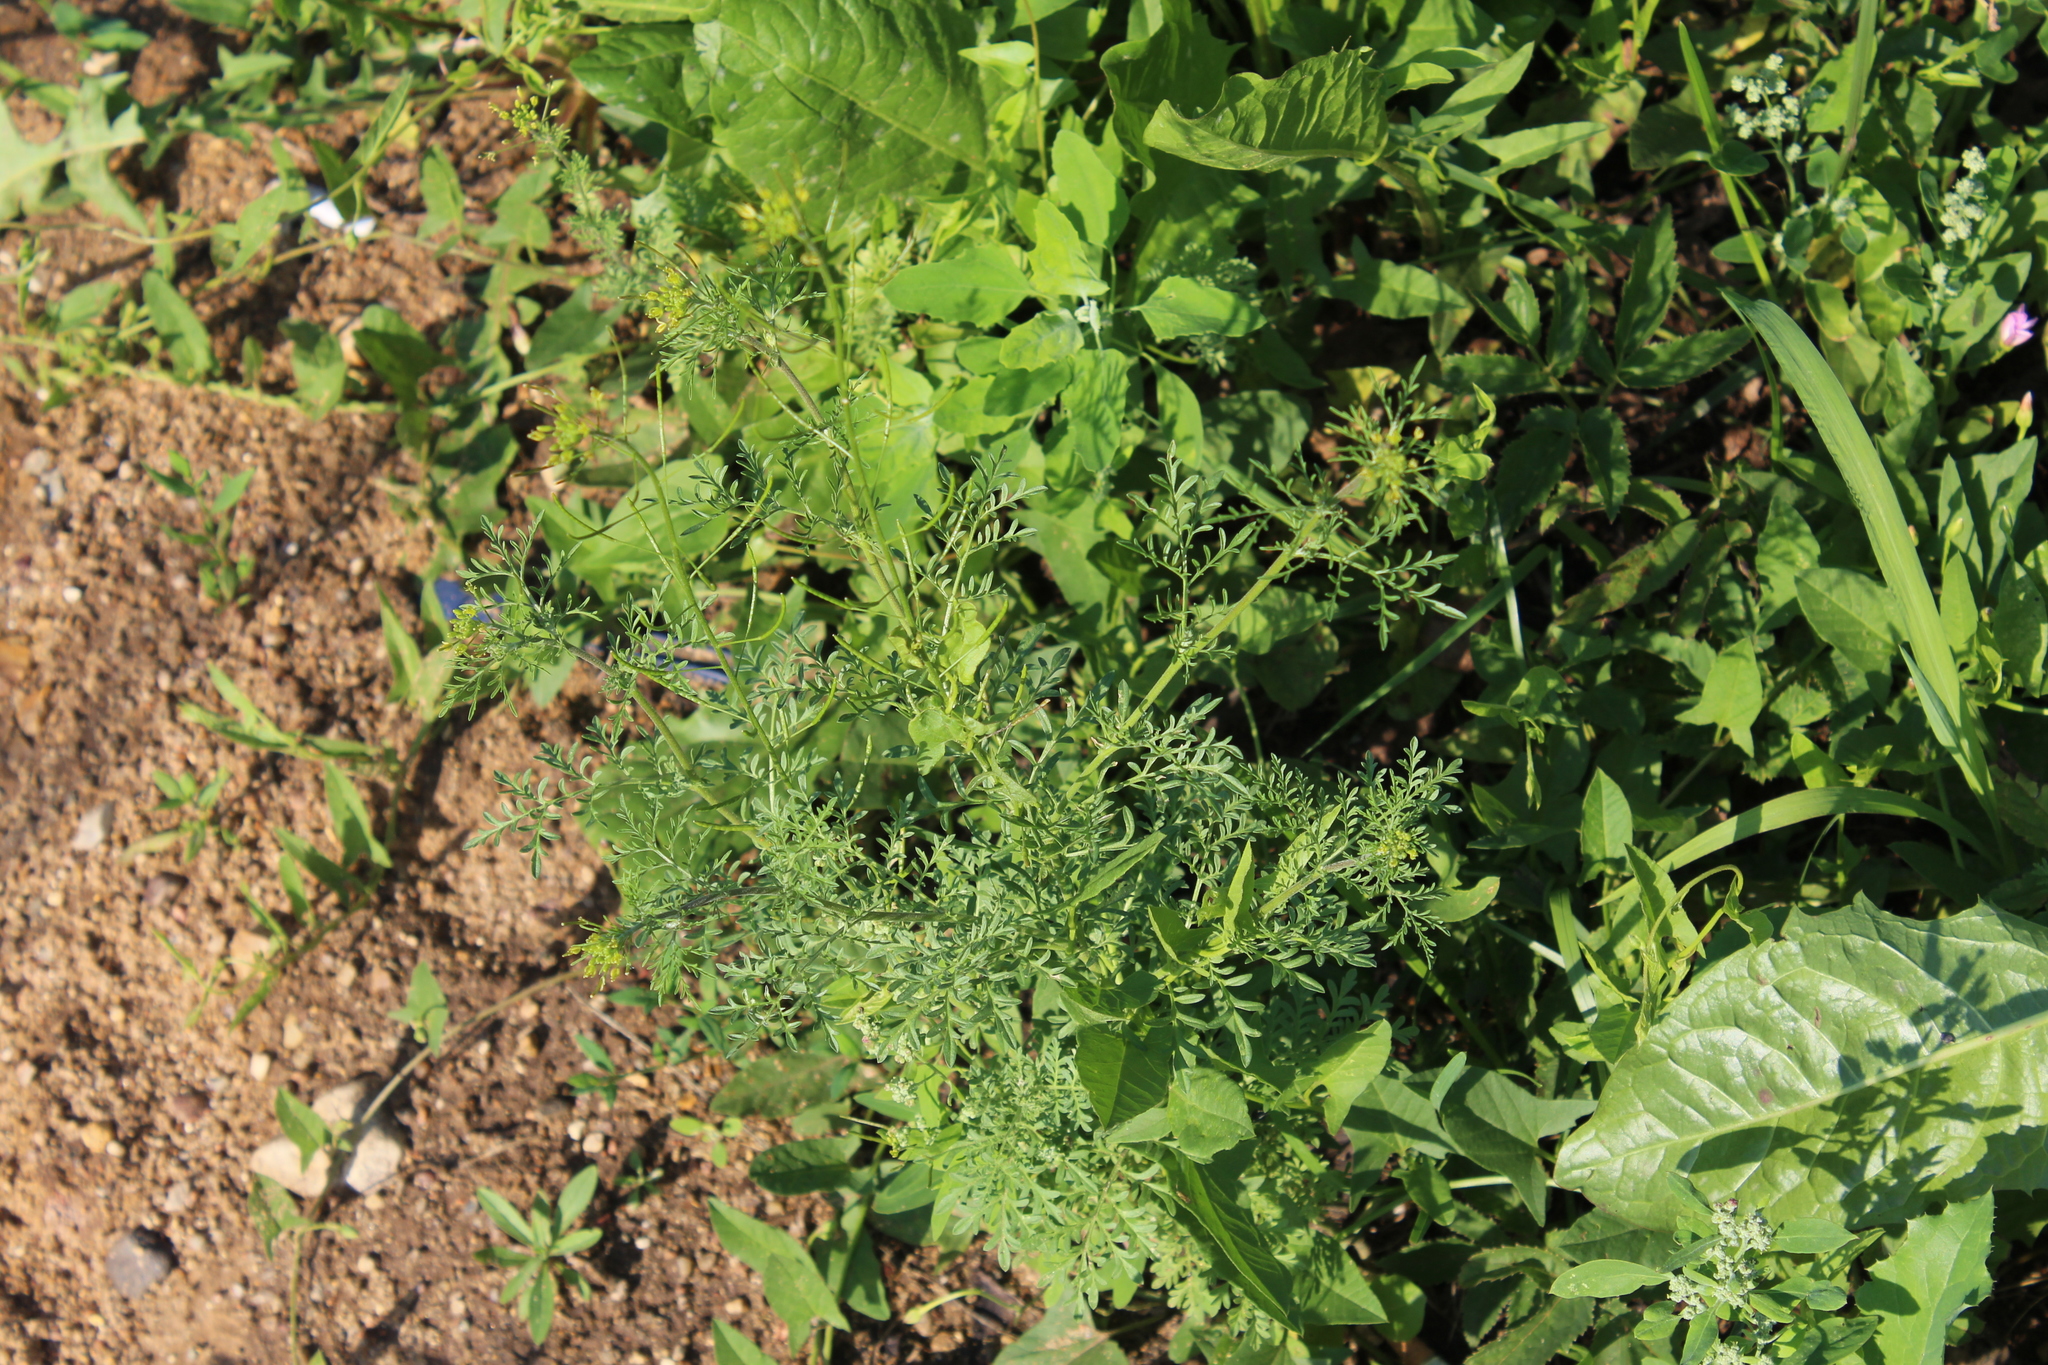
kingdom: Plantae
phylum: Tracheophyta
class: Magnoliopsida
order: Brassicales
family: Brassicaceae
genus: Descurainia
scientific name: Descurainia sophia
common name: Flixweed
